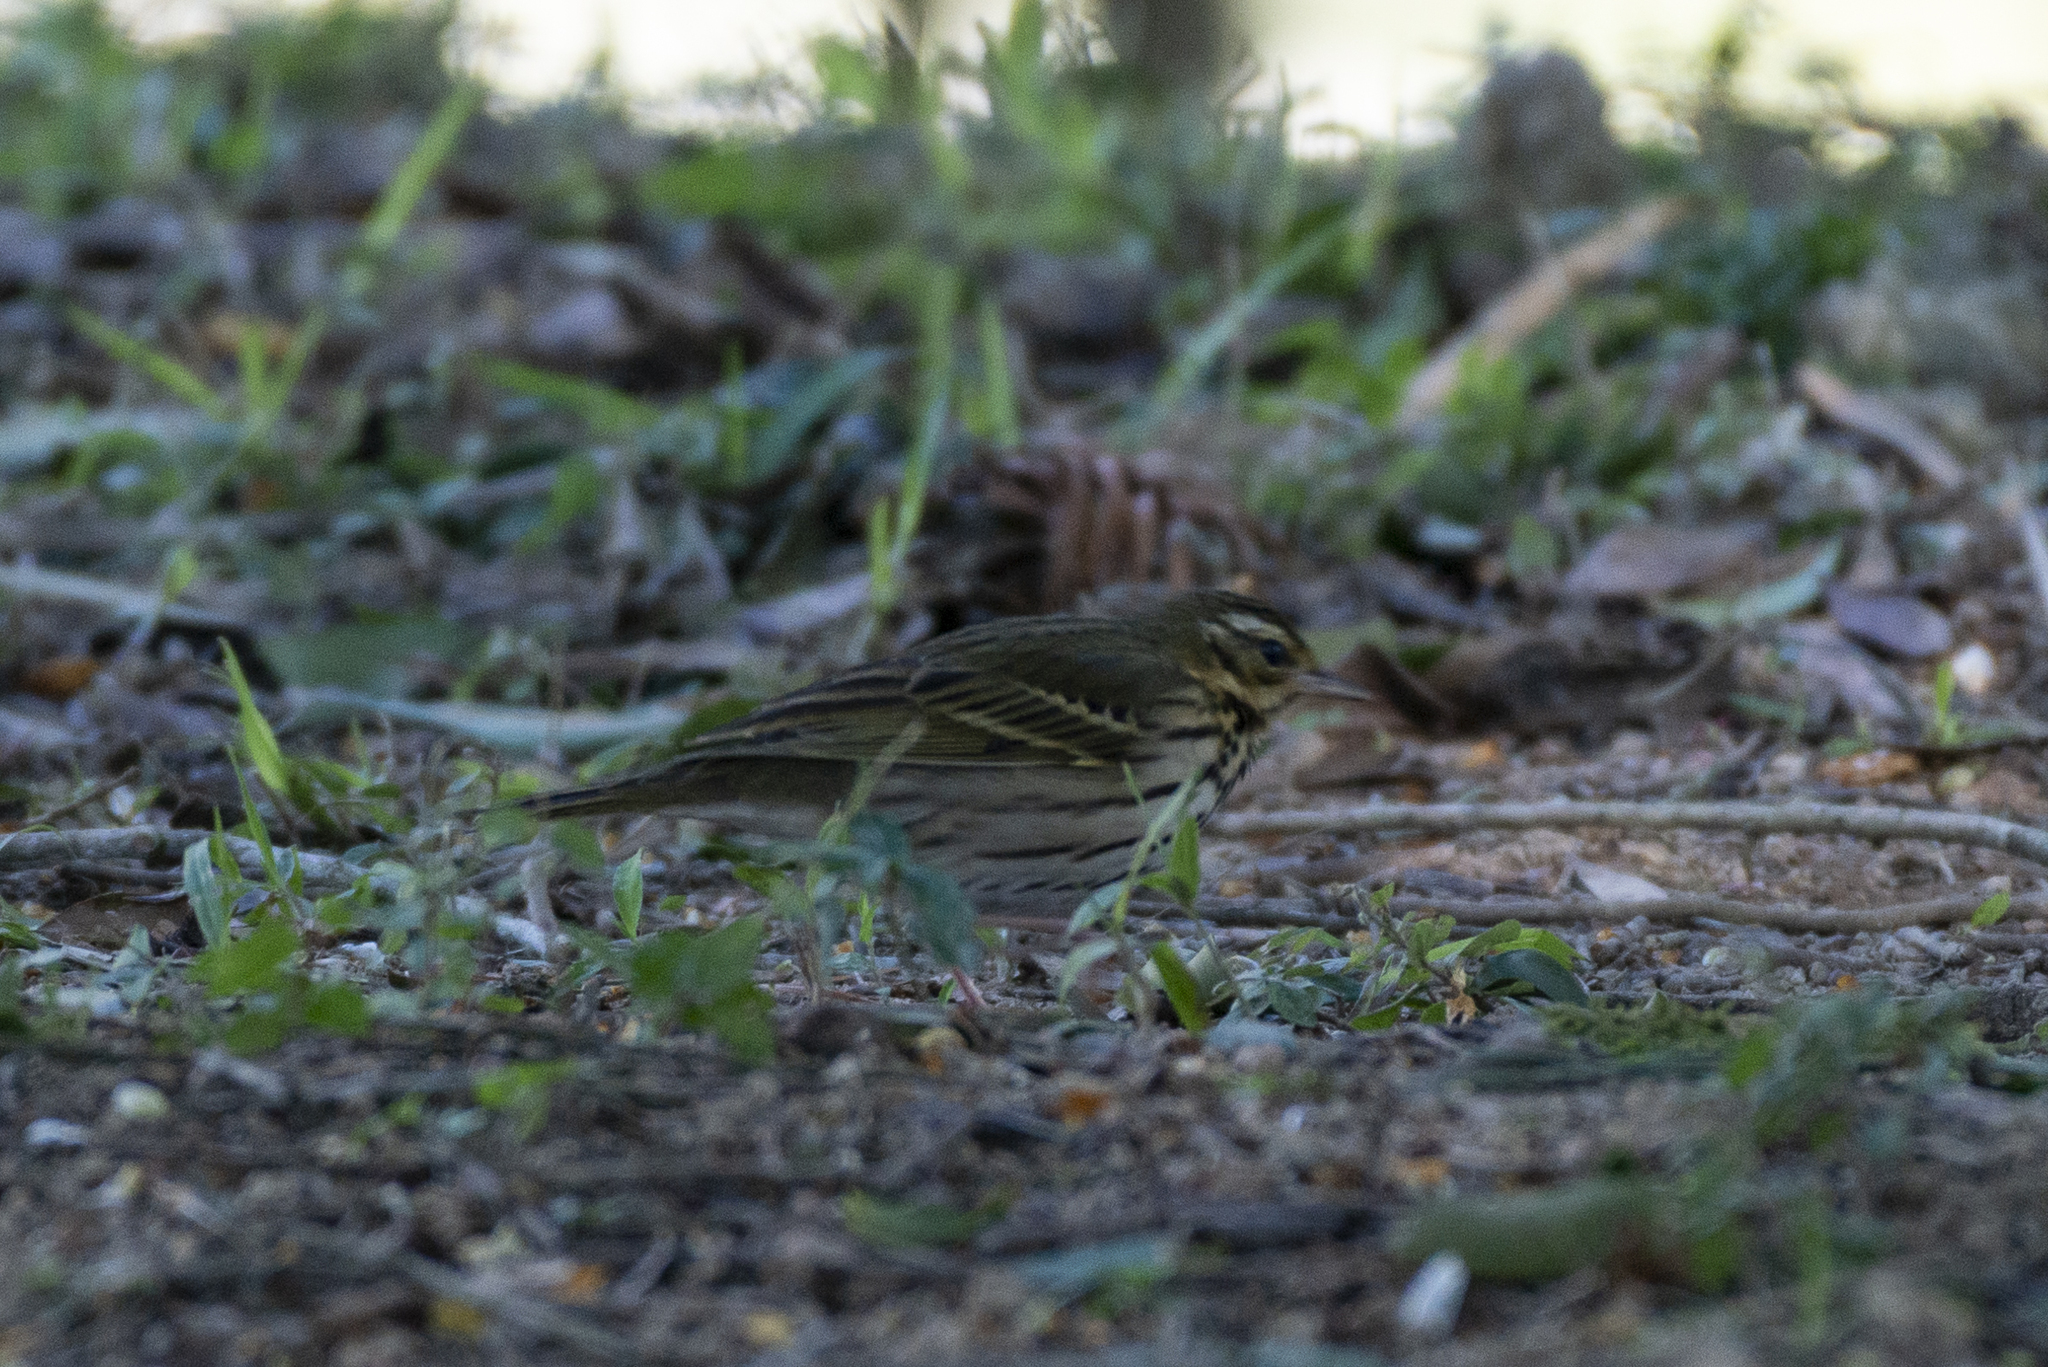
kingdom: Animalia
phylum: Chordata
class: Aves
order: Passeriformes
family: Motacillidae
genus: Anthus
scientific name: Anthus hodgsoni
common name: Olive-backed pipit
